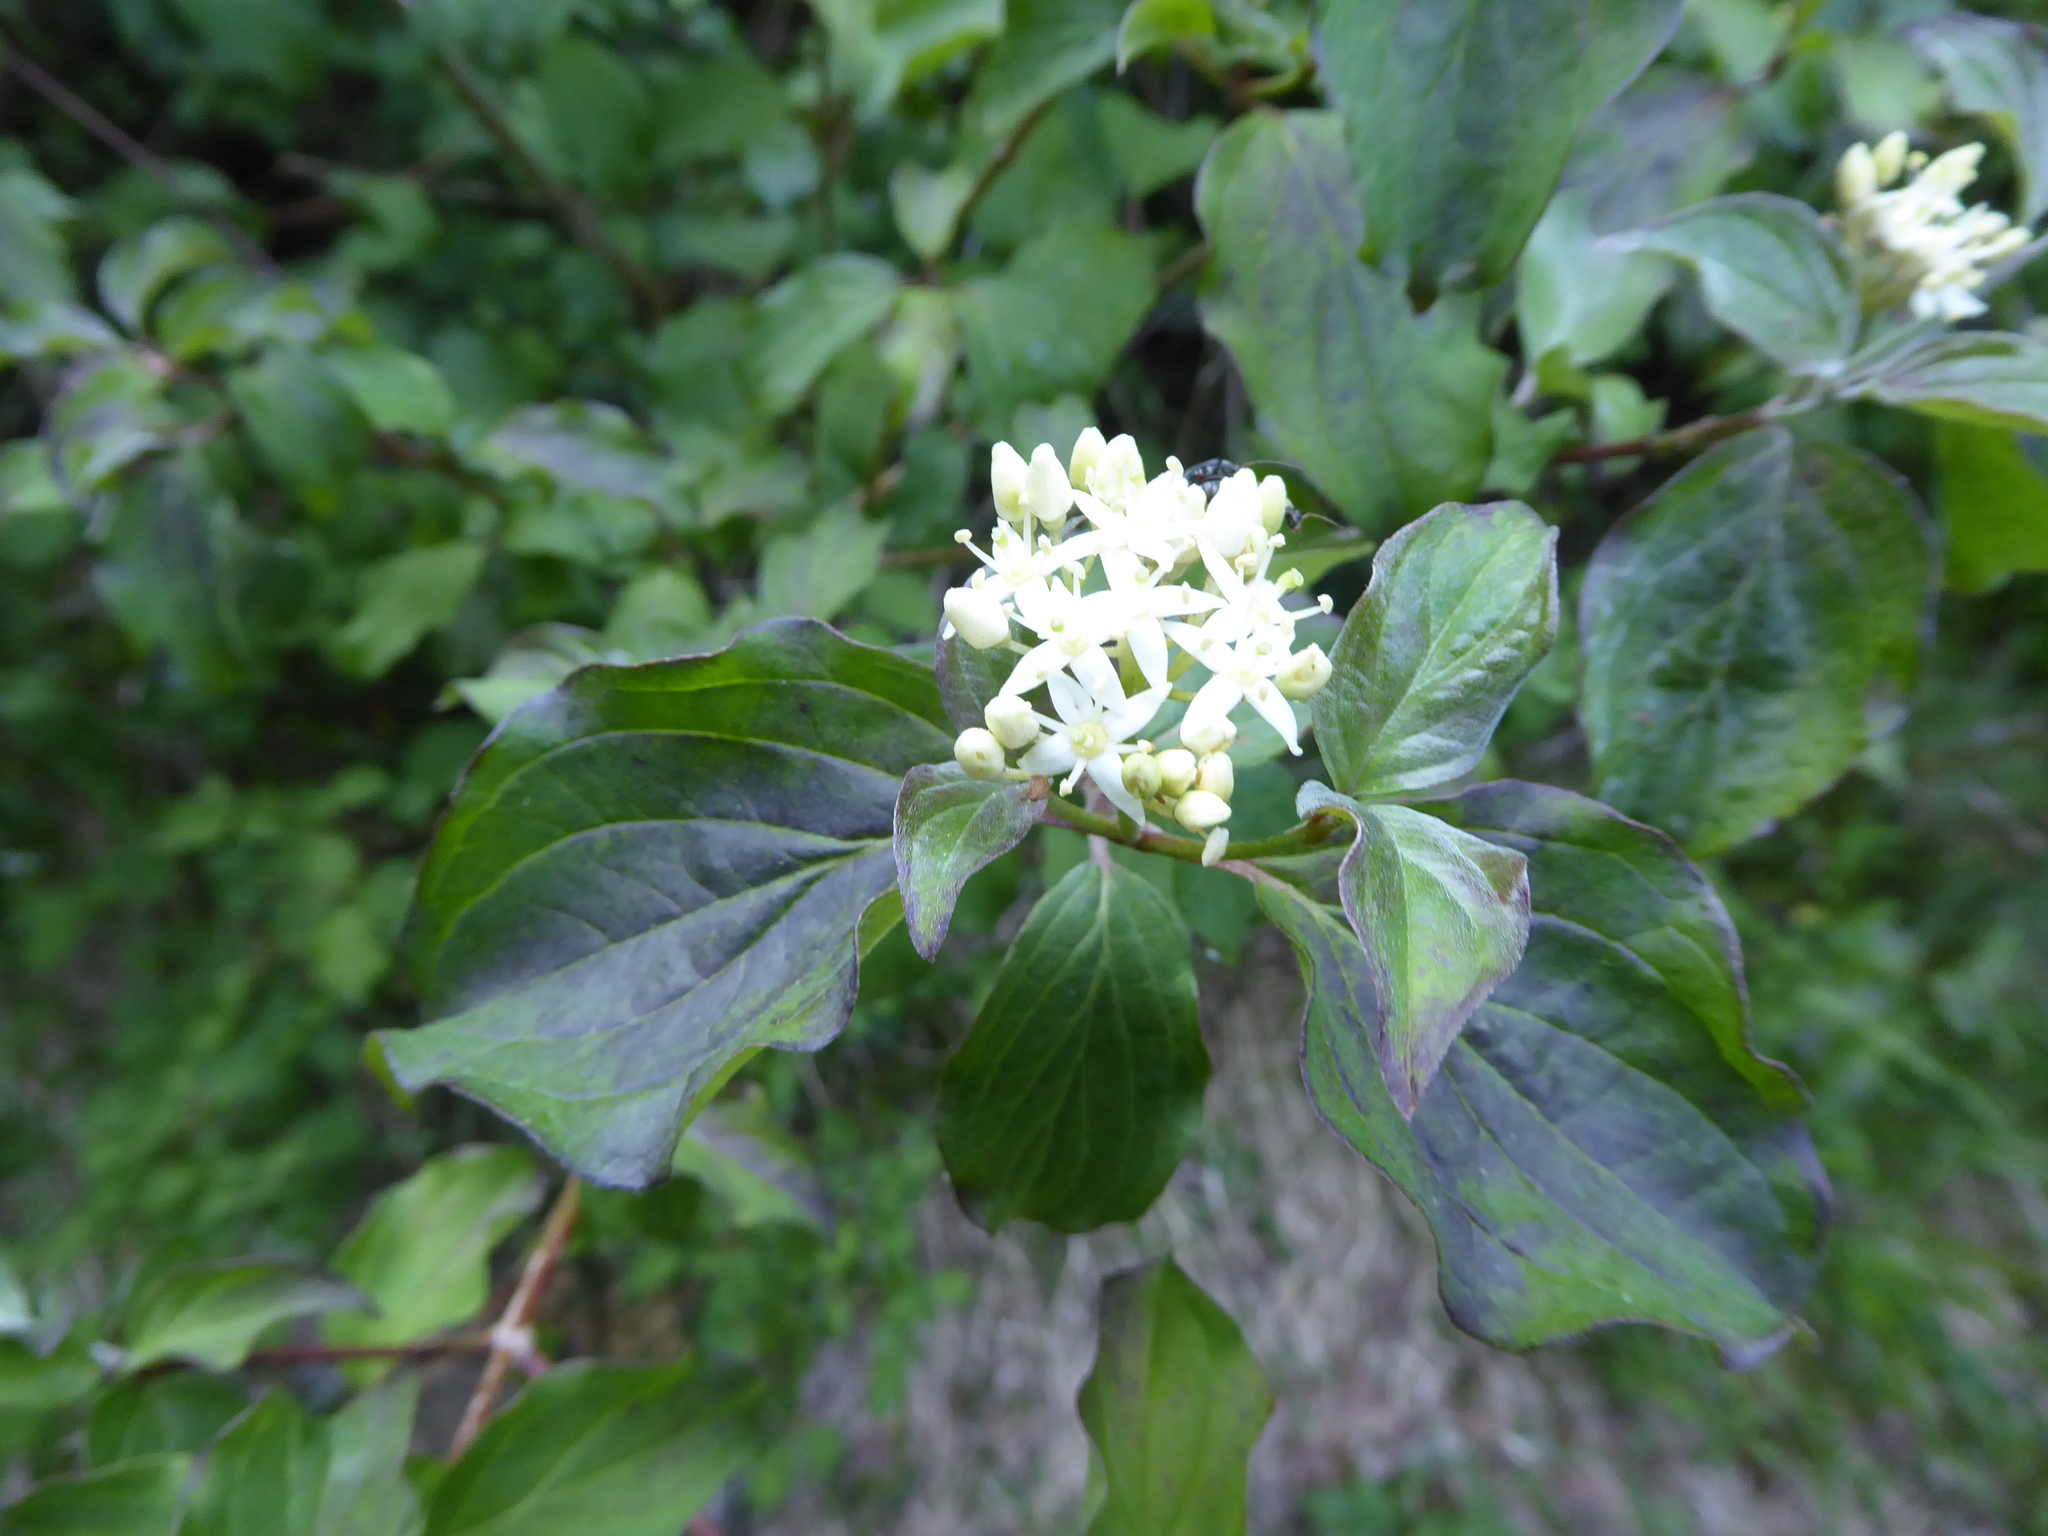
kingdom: Plantae
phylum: Tracheophyta
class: Magnoliopsida
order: Cornales
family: Cornaceae
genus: Cornus
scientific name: Cornus sanguinea
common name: Dogwood
